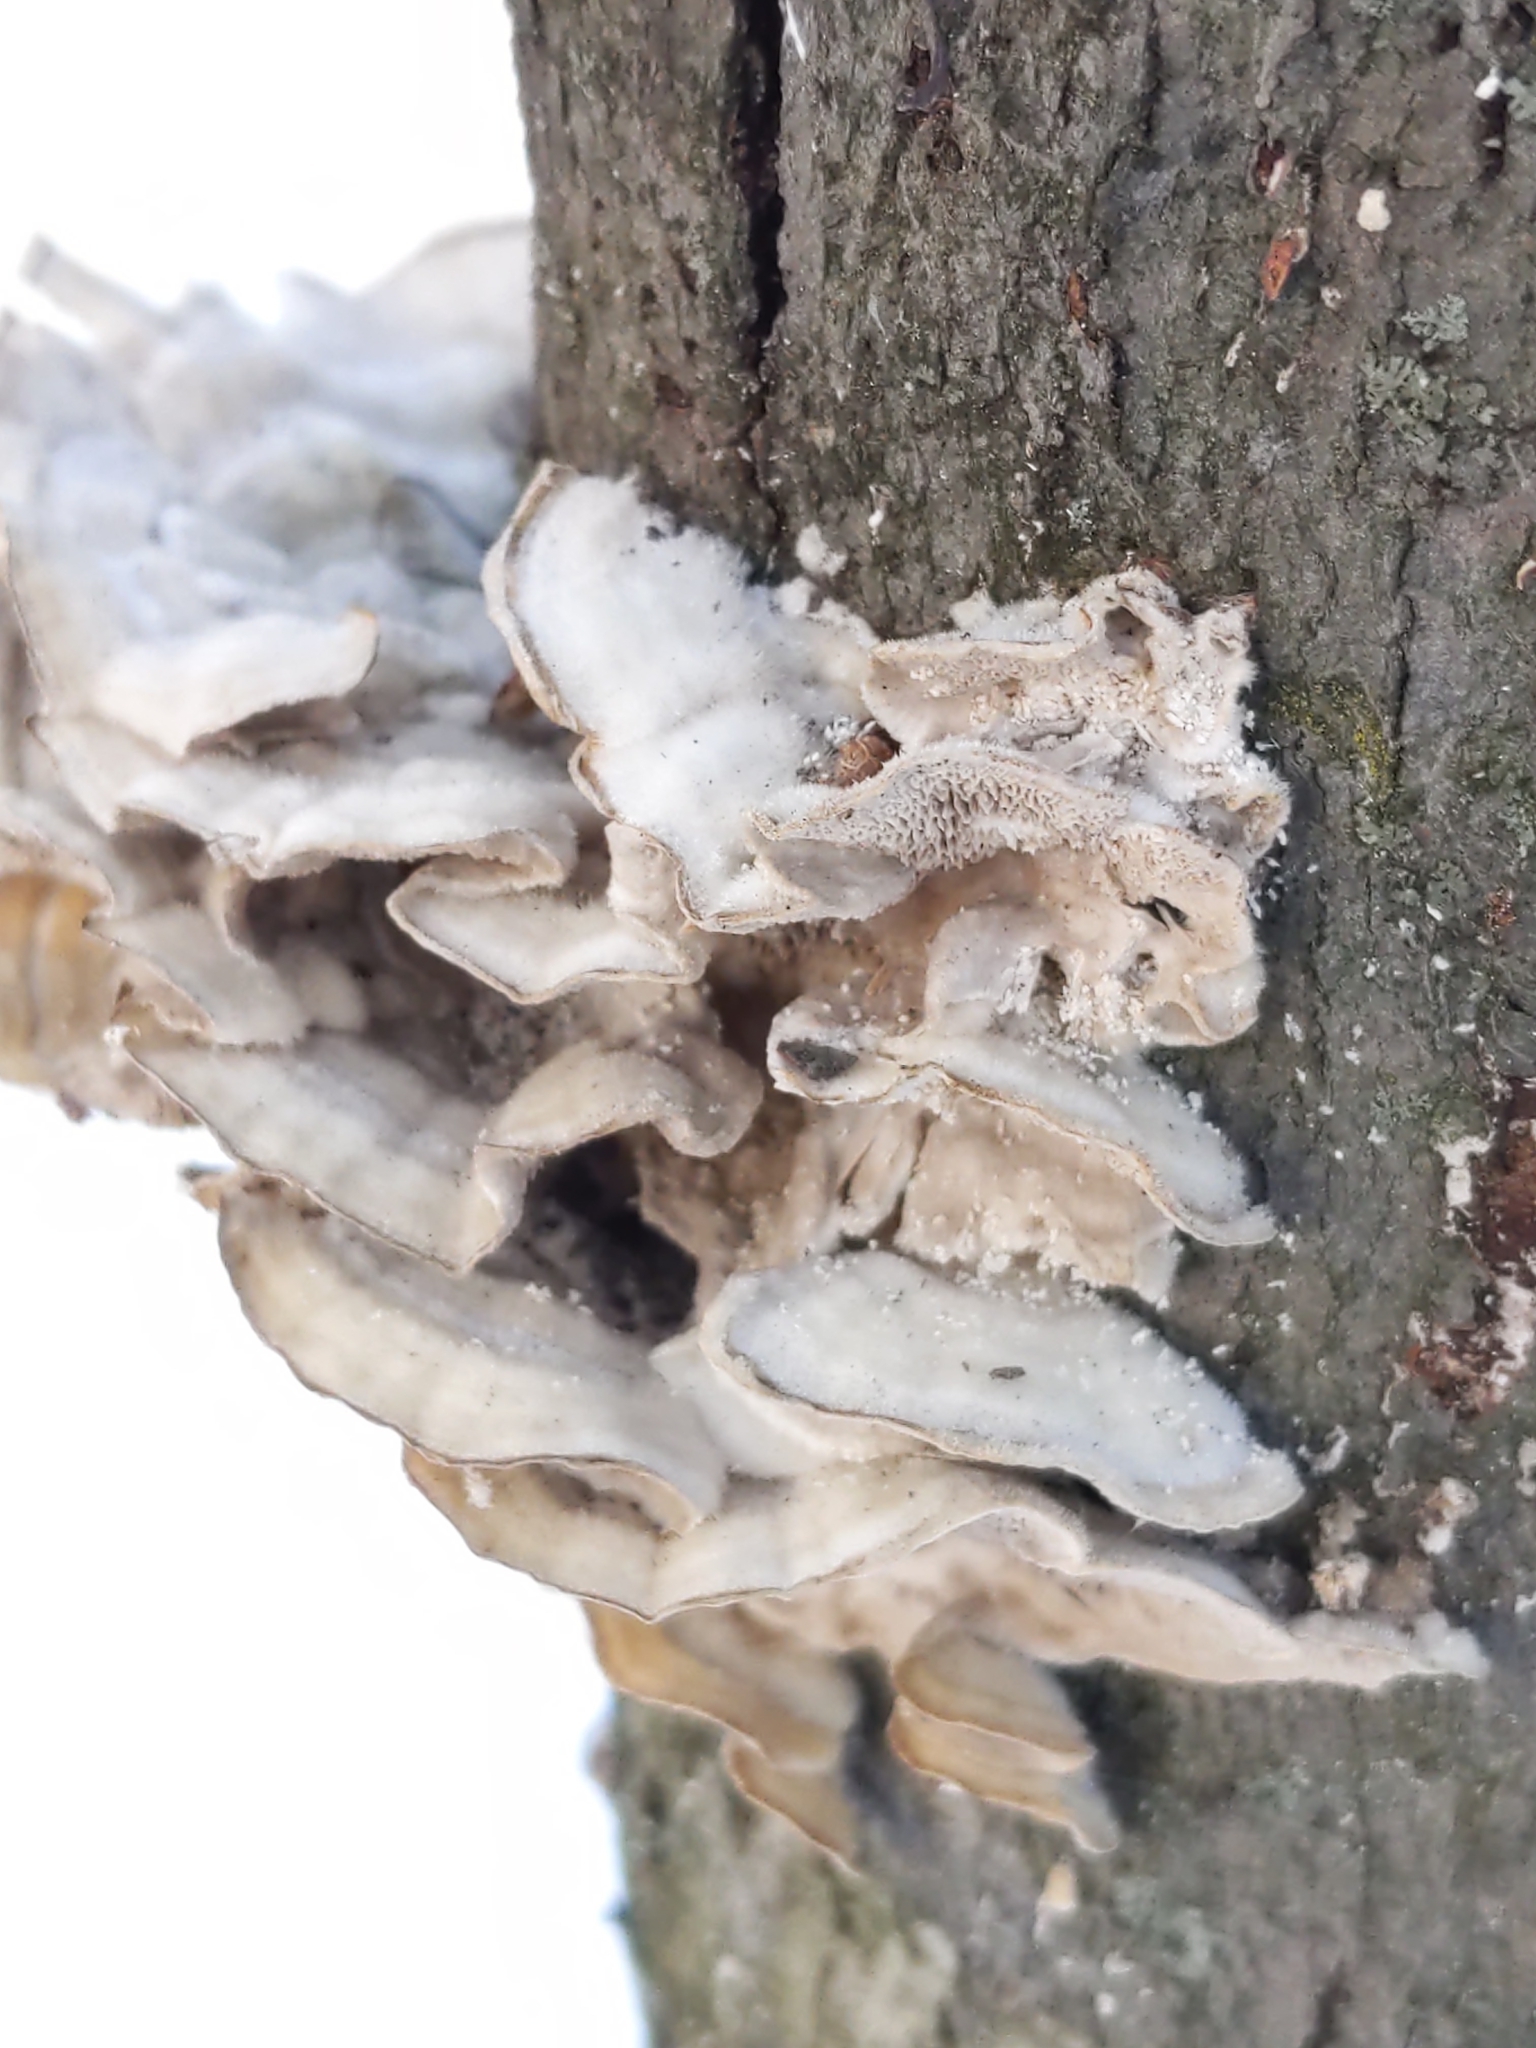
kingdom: Fungi
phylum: Basidiomycota
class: Agaricomycetes
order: Polyporales
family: Cerrenaceae
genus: Cerrena
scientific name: Cerrena unicolor
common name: Mossy maze polypore
